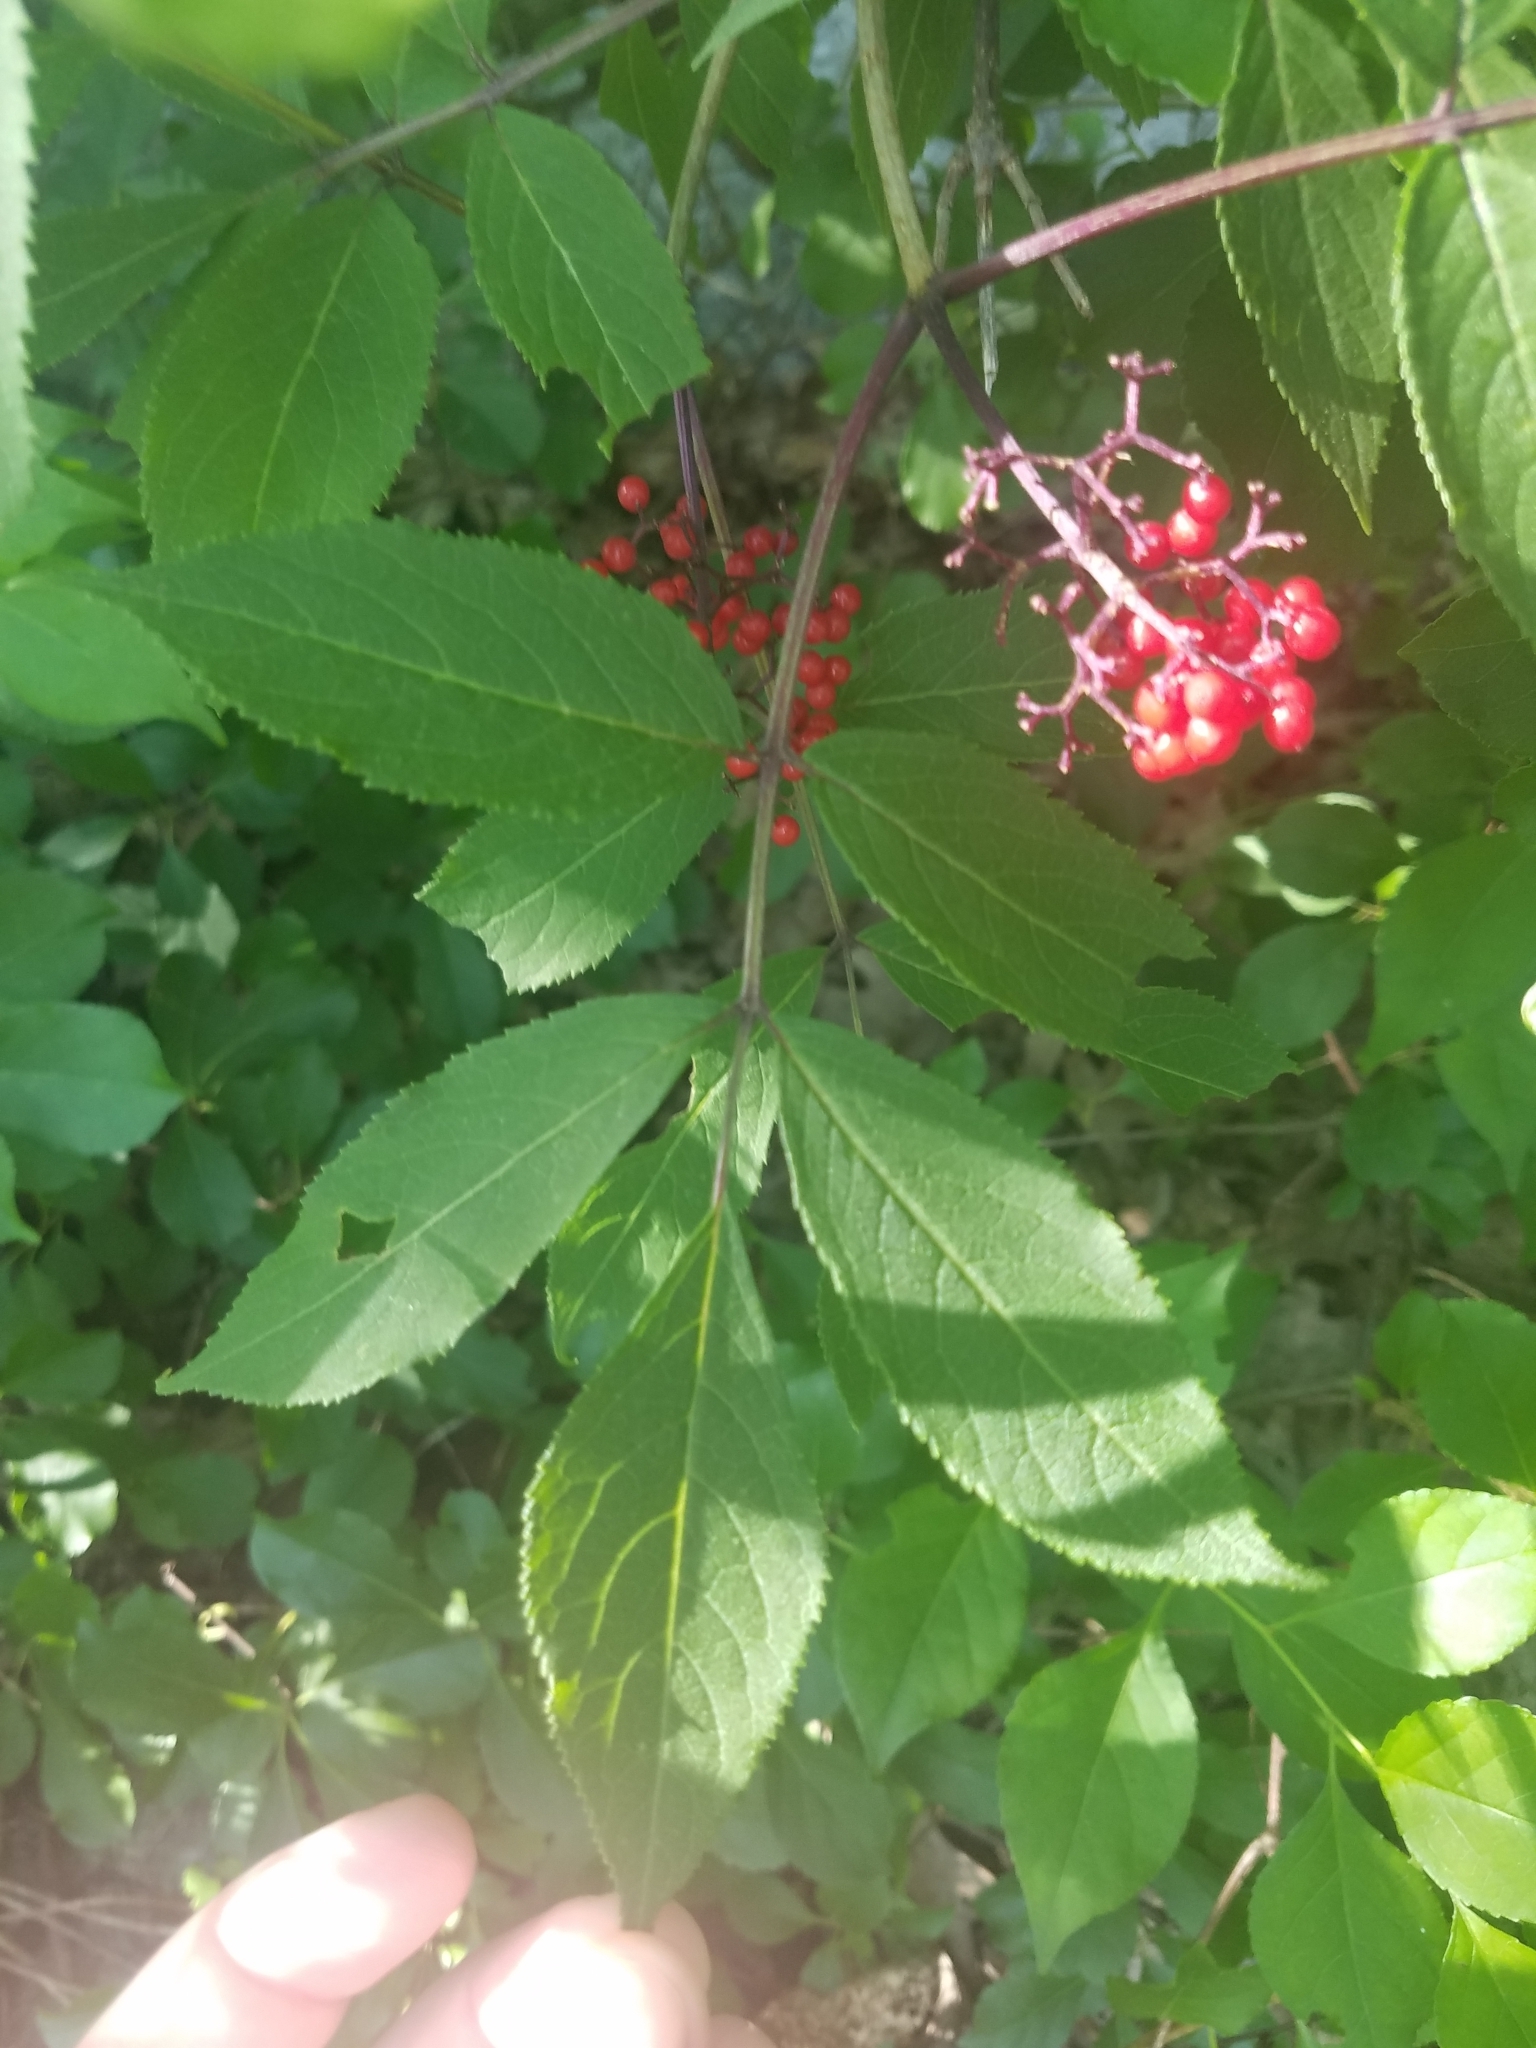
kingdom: Plantae
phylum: Tracheophyta
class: Magnoliopsida
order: Dipsacales
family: Viburnaceae
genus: Sambucus
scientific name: Sambucus racemosa
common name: Red-berried elder
